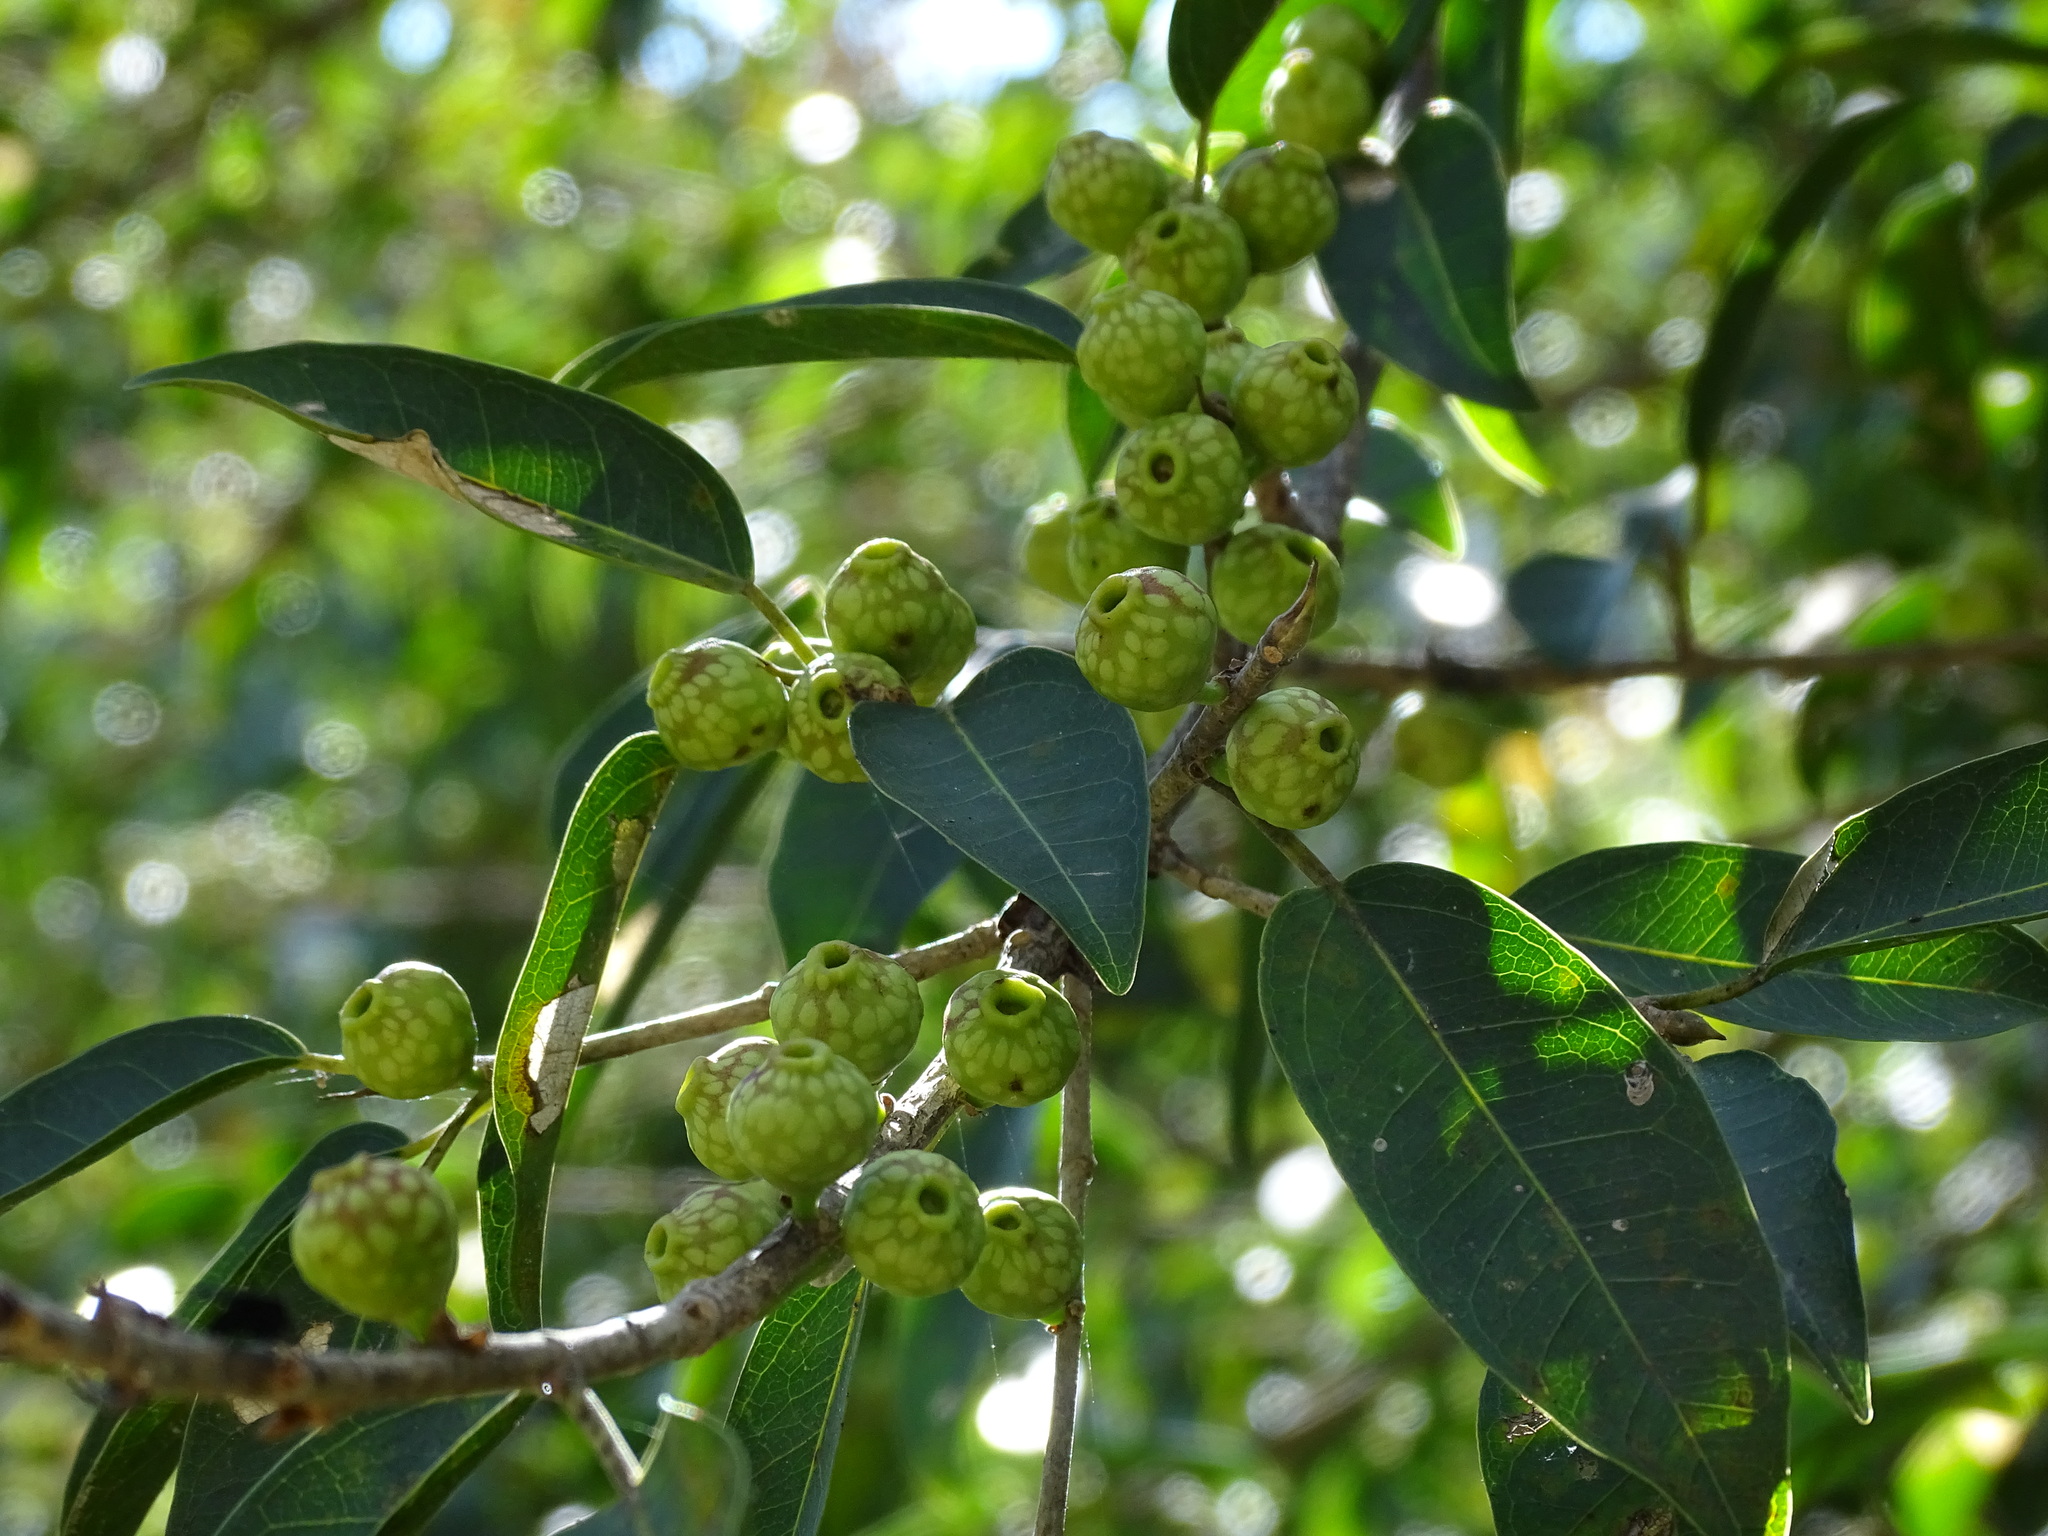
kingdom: Plantae
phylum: Tracheophyta
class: Magnoliopsida
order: Rosales
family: Moraceae
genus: Ficus
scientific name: Ficus pertusa
